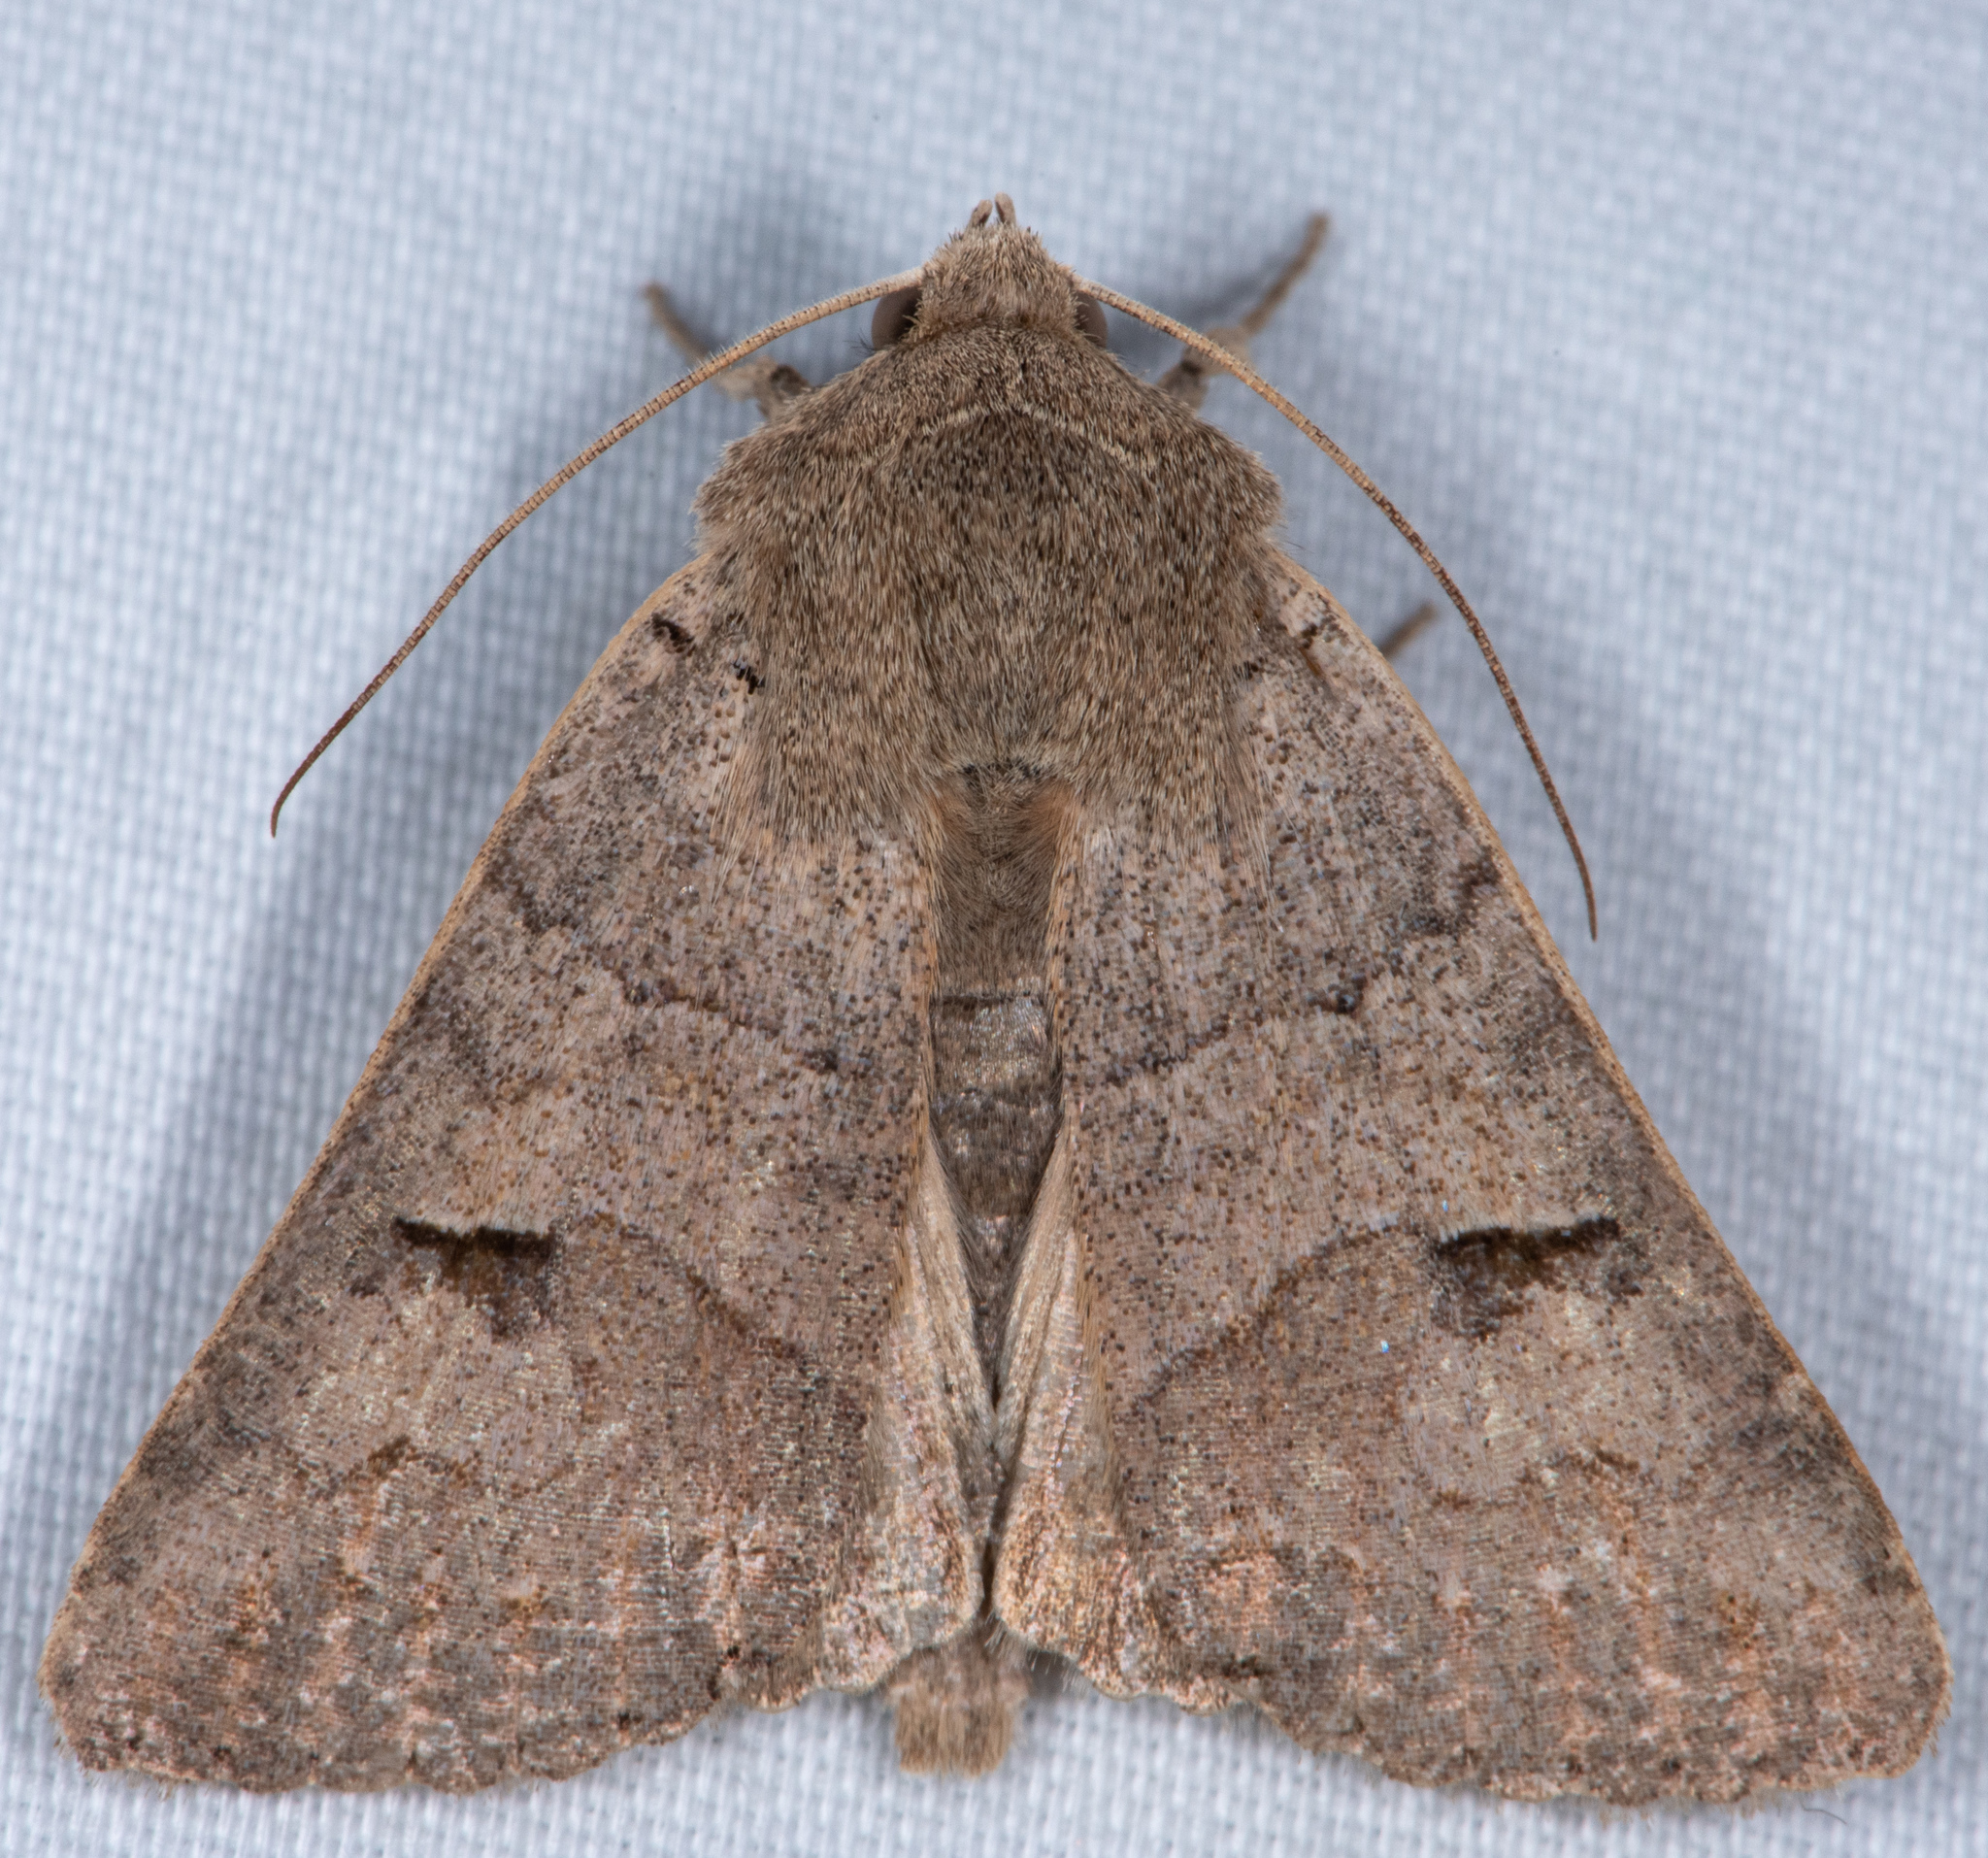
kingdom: Animalia
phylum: Arthropoda
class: Insecta
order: Lepidoptera
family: Erebidae
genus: Cissusa
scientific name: Cissusa indiscreta
